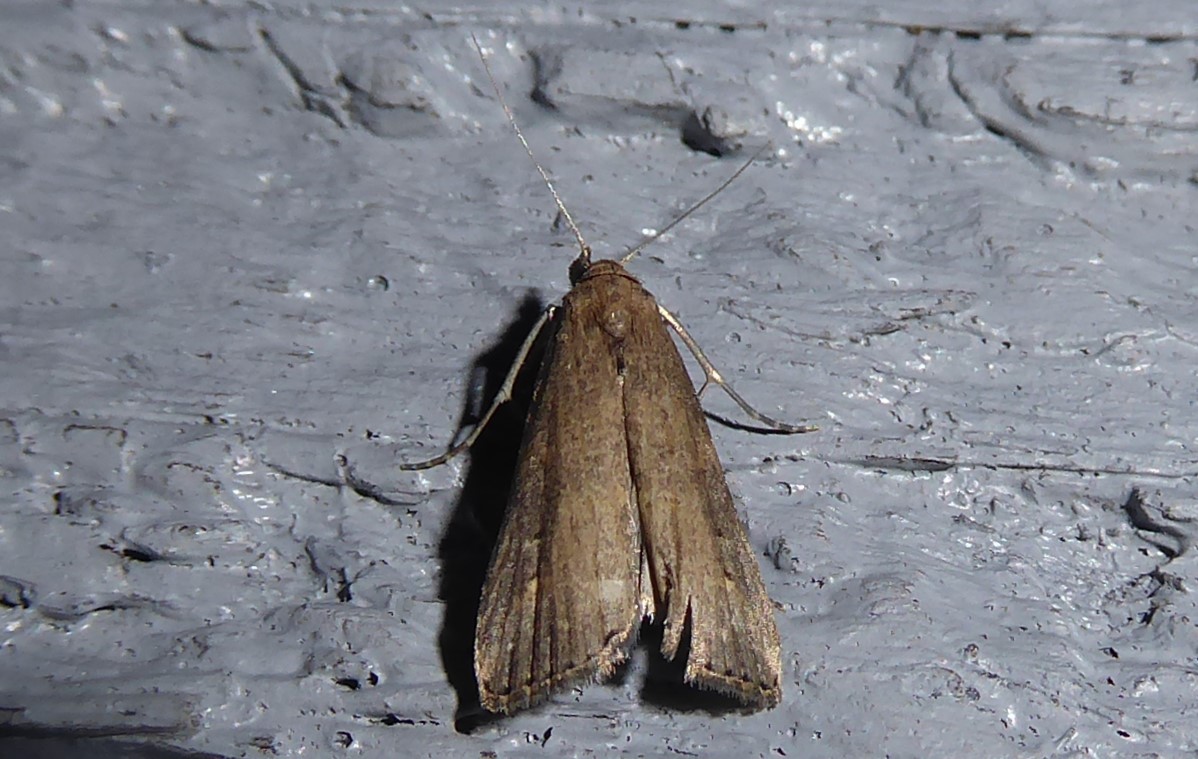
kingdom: Animalia
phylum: Arthropoda
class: Insecta
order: Lepidoptera
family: Erebidae
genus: Schrankia
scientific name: Schrankia costaestrigalis
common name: Pinion-streaked snout
